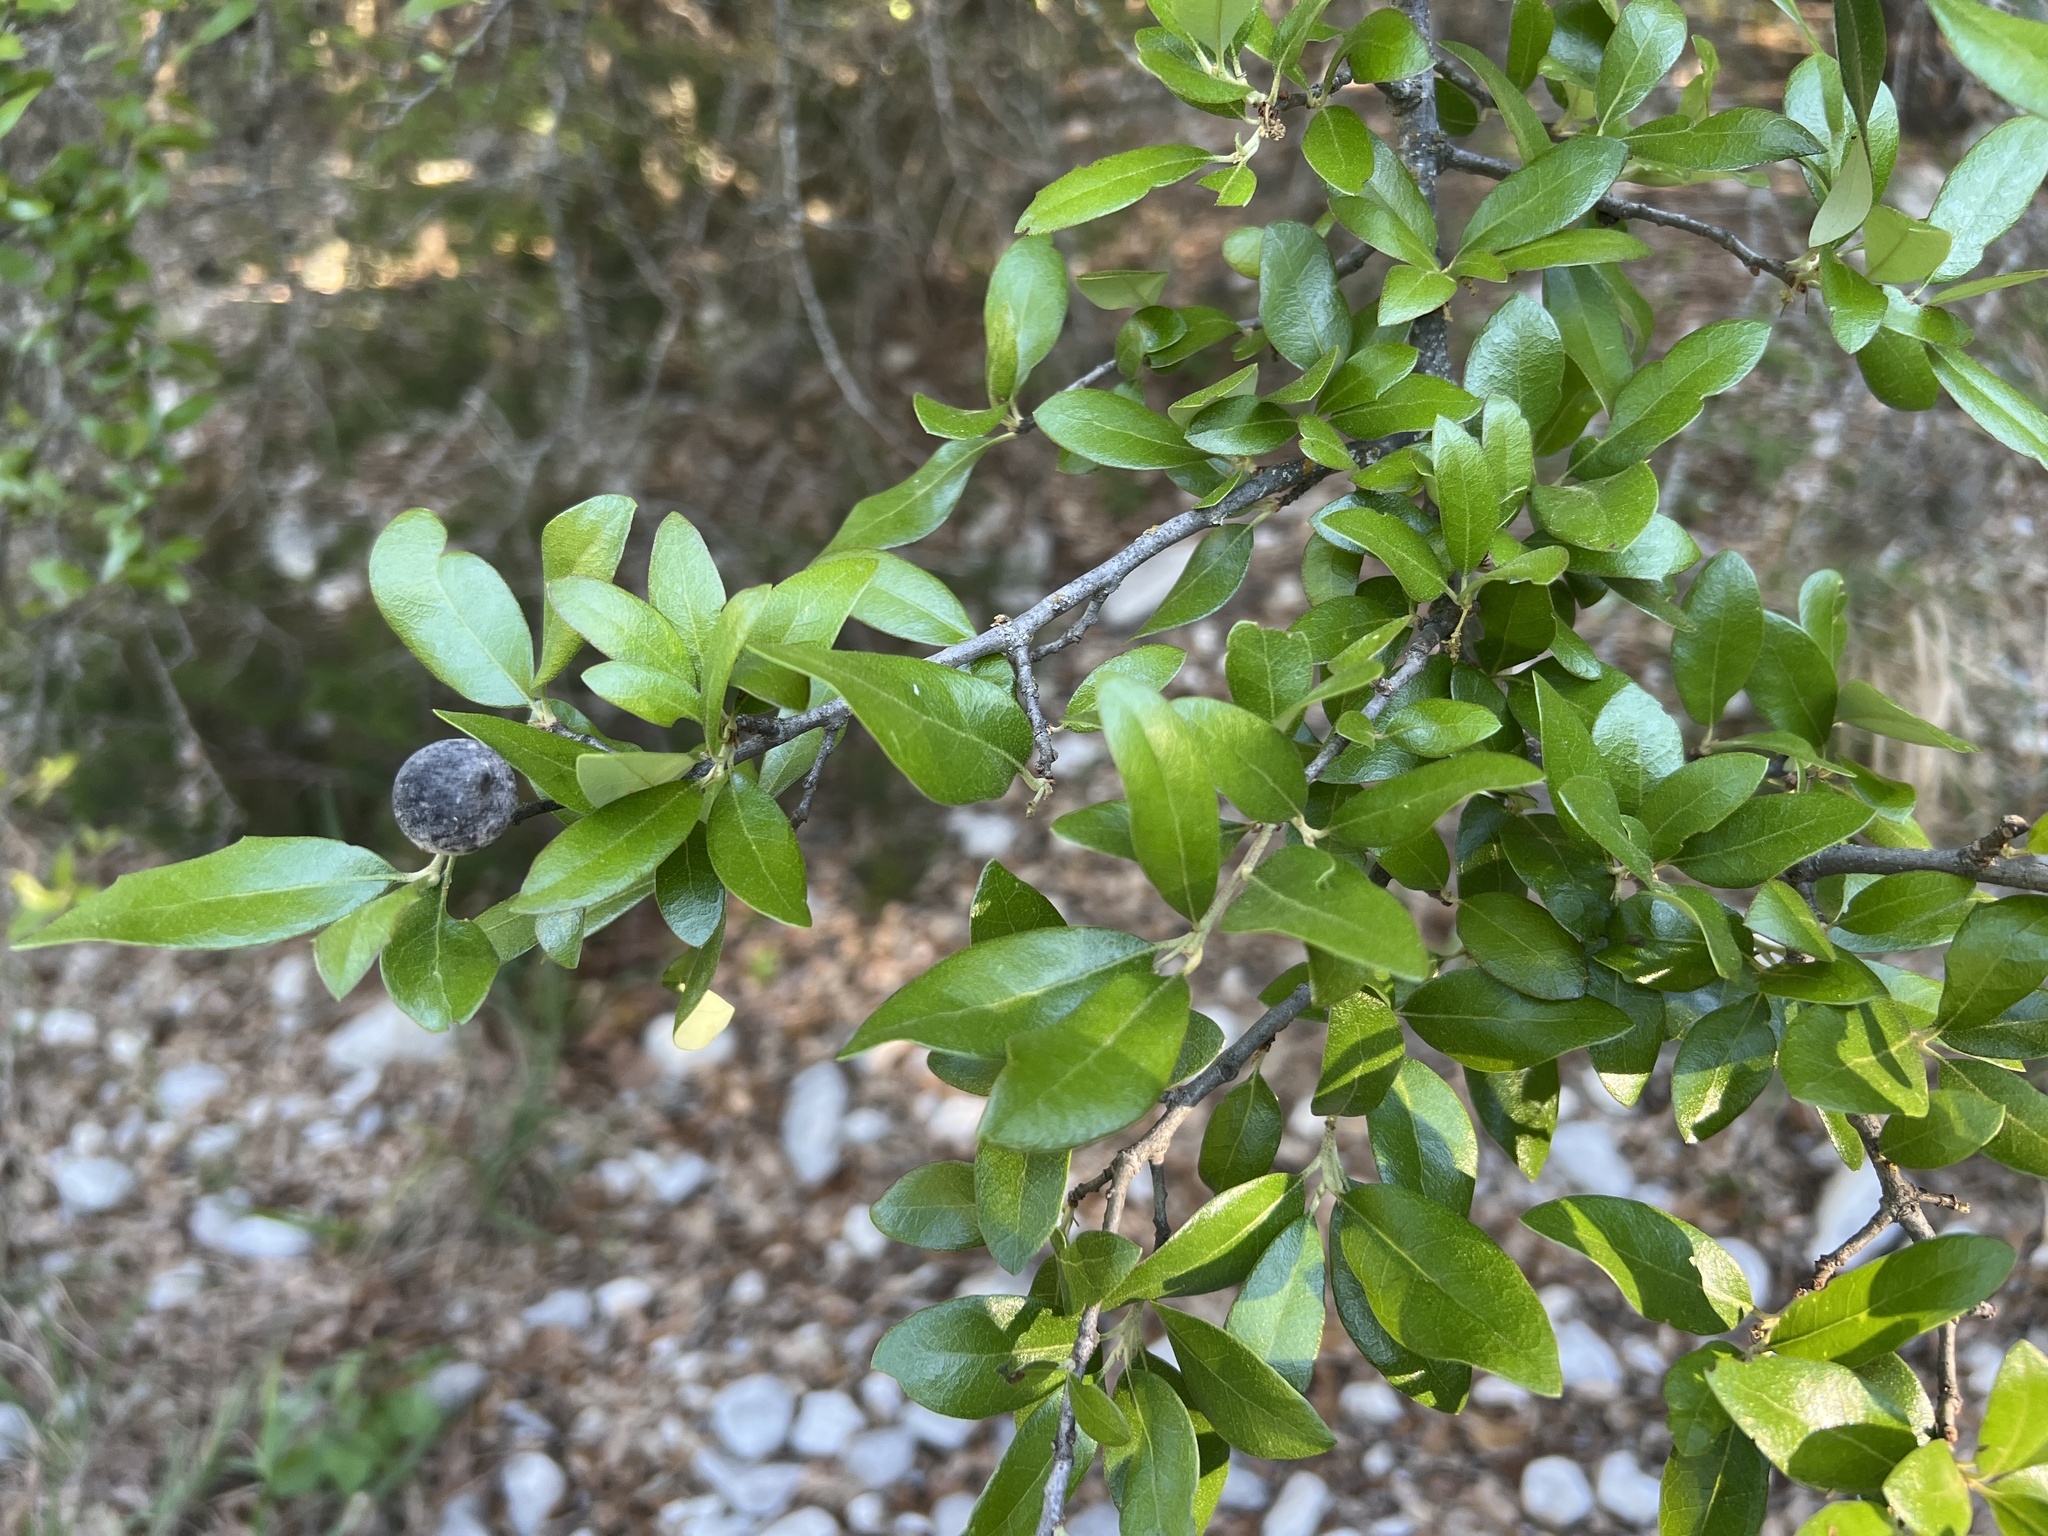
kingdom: Animalia
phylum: Arthropoda
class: Insecta
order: Hymenoptera
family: Cynipidae
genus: Disholcaspis
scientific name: Disholcaspis
